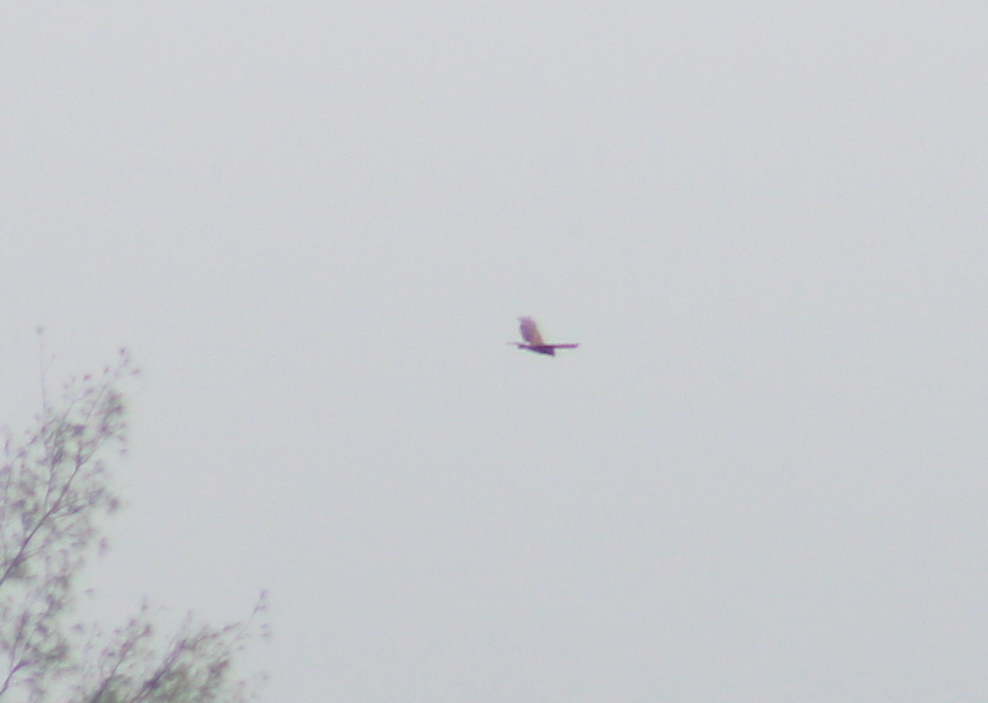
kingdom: Animalia
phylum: Chordata
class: Aves
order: Accipitriformes
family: Accipitridae
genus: Circus
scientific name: Circus approximans
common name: Swamp harrier
